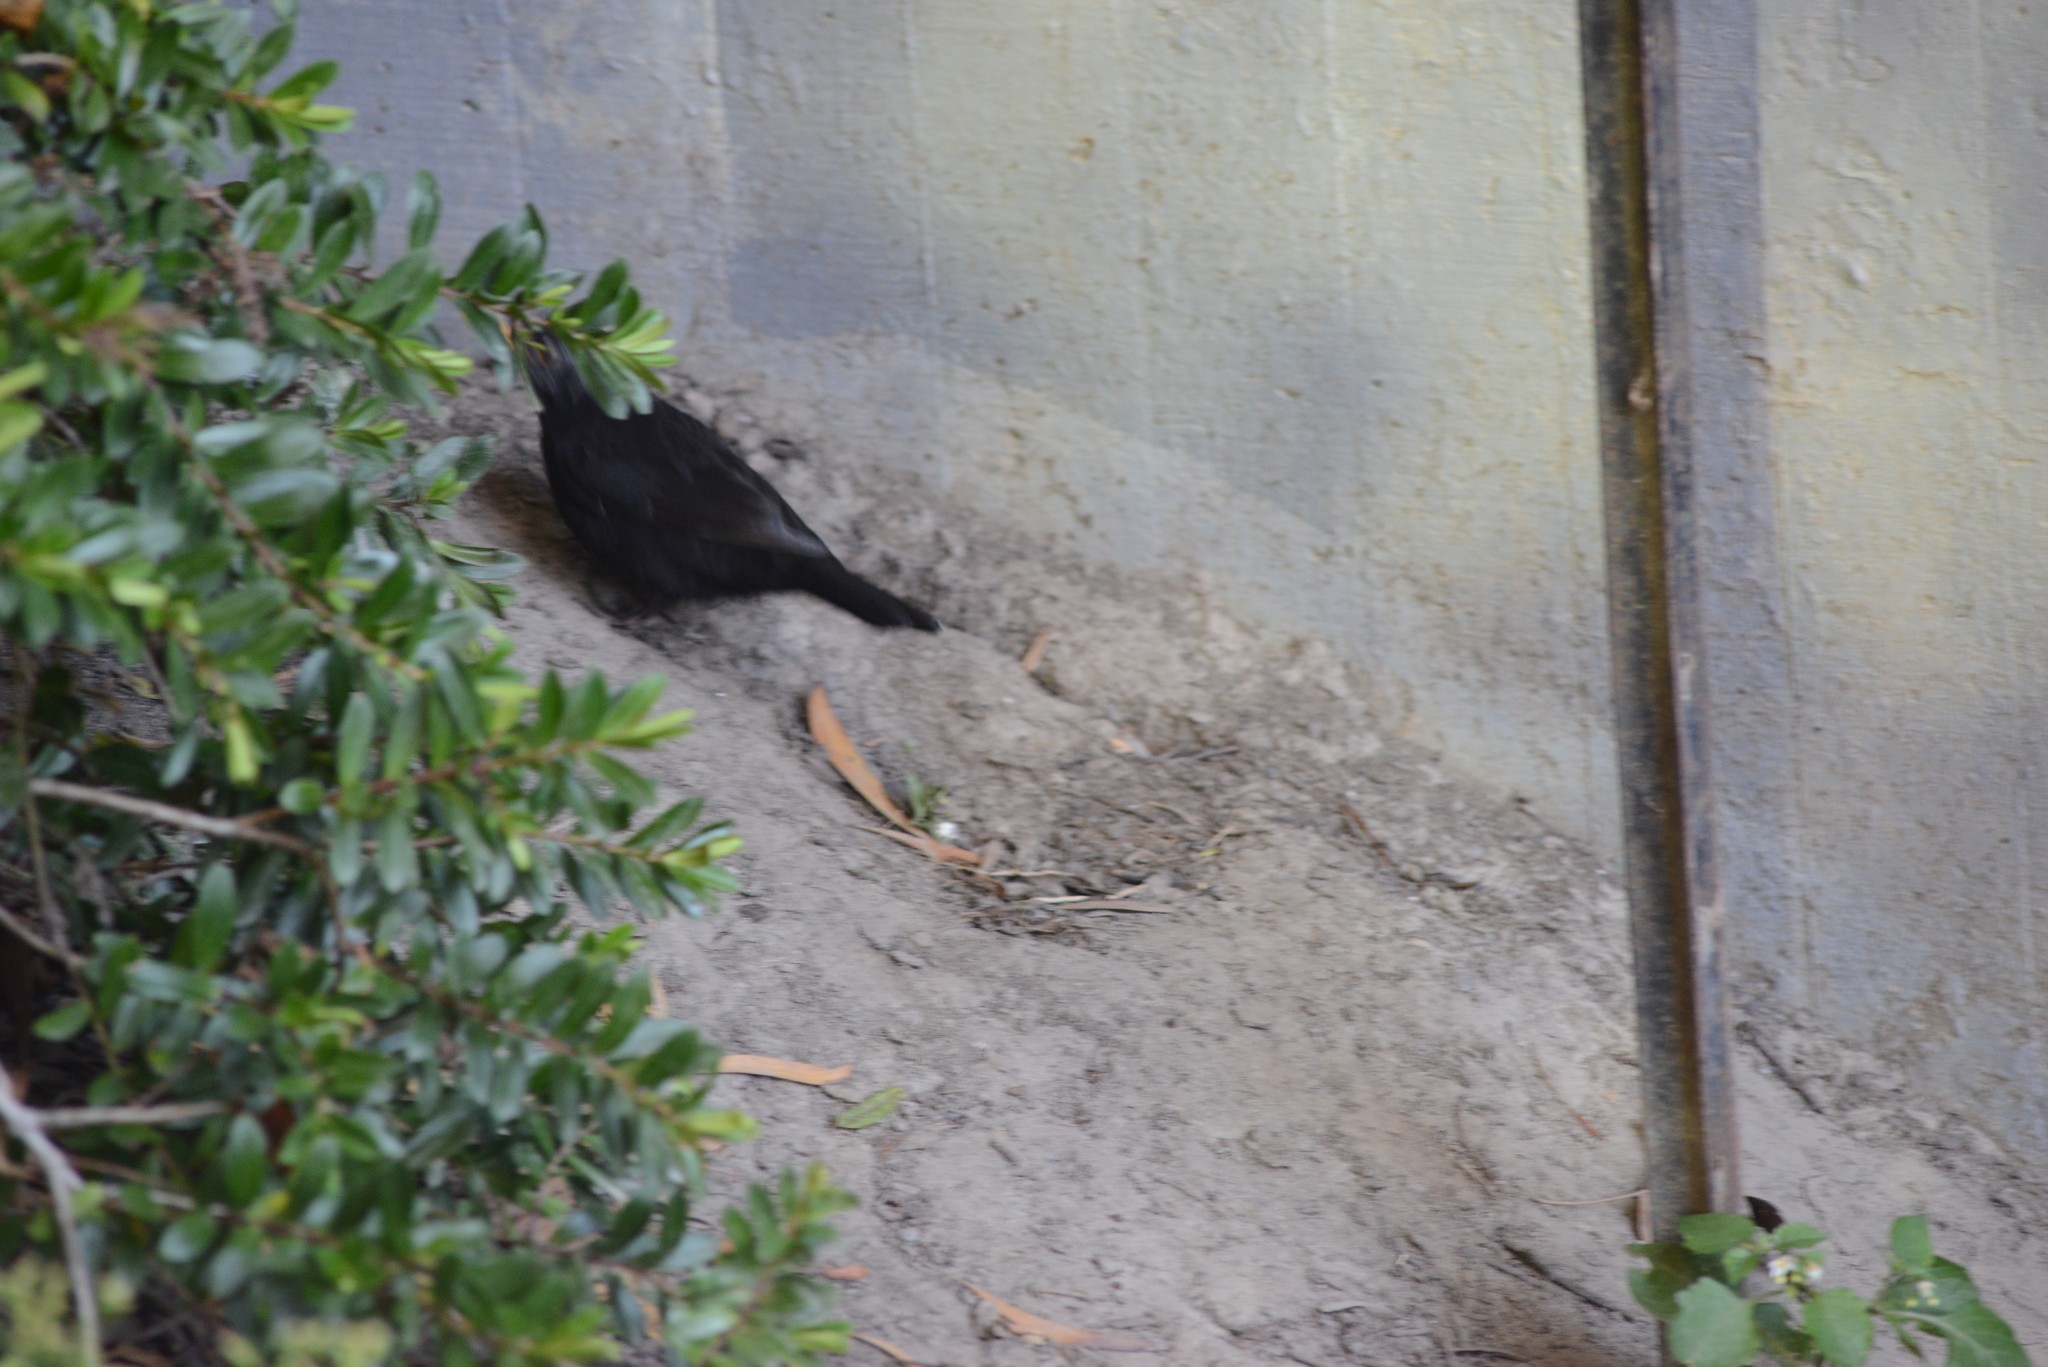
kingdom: Animalia
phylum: Chordata
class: Aves
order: Passeriformes
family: Turdidae
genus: Turdus
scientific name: Turdus merula
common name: Common blackbird
